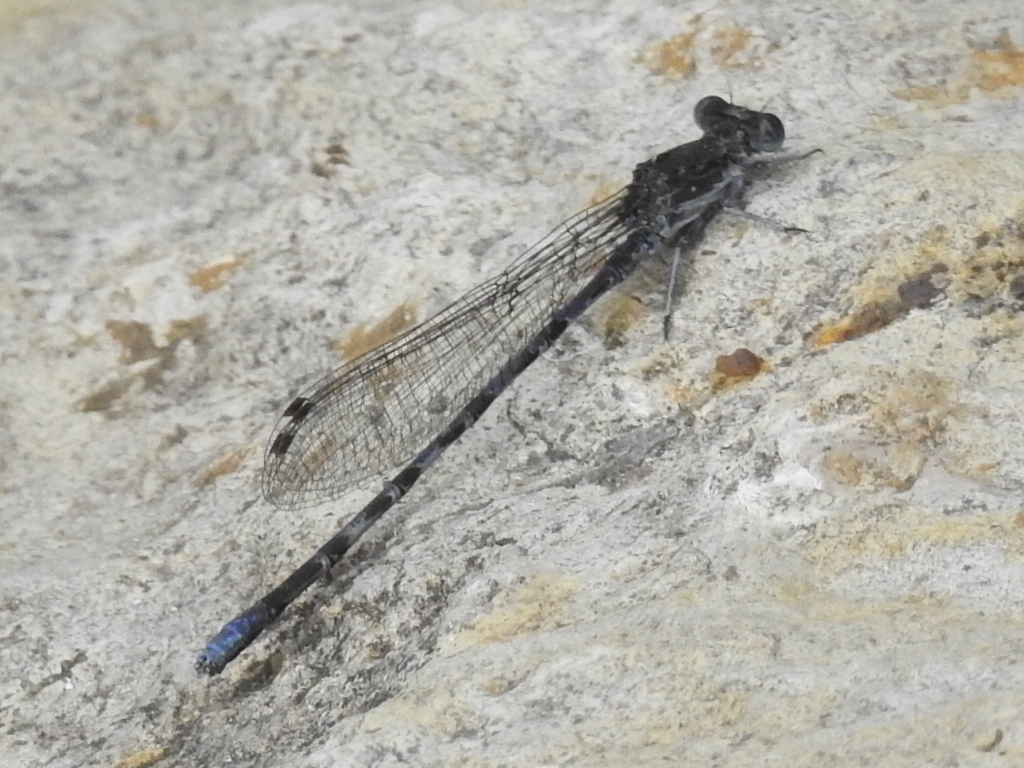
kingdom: Animalia
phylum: Arthropoda
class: Insecta
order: Odonata
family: Coenagrionidae
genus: Argia
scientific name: Argia immunda
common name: Kiowa dancer
